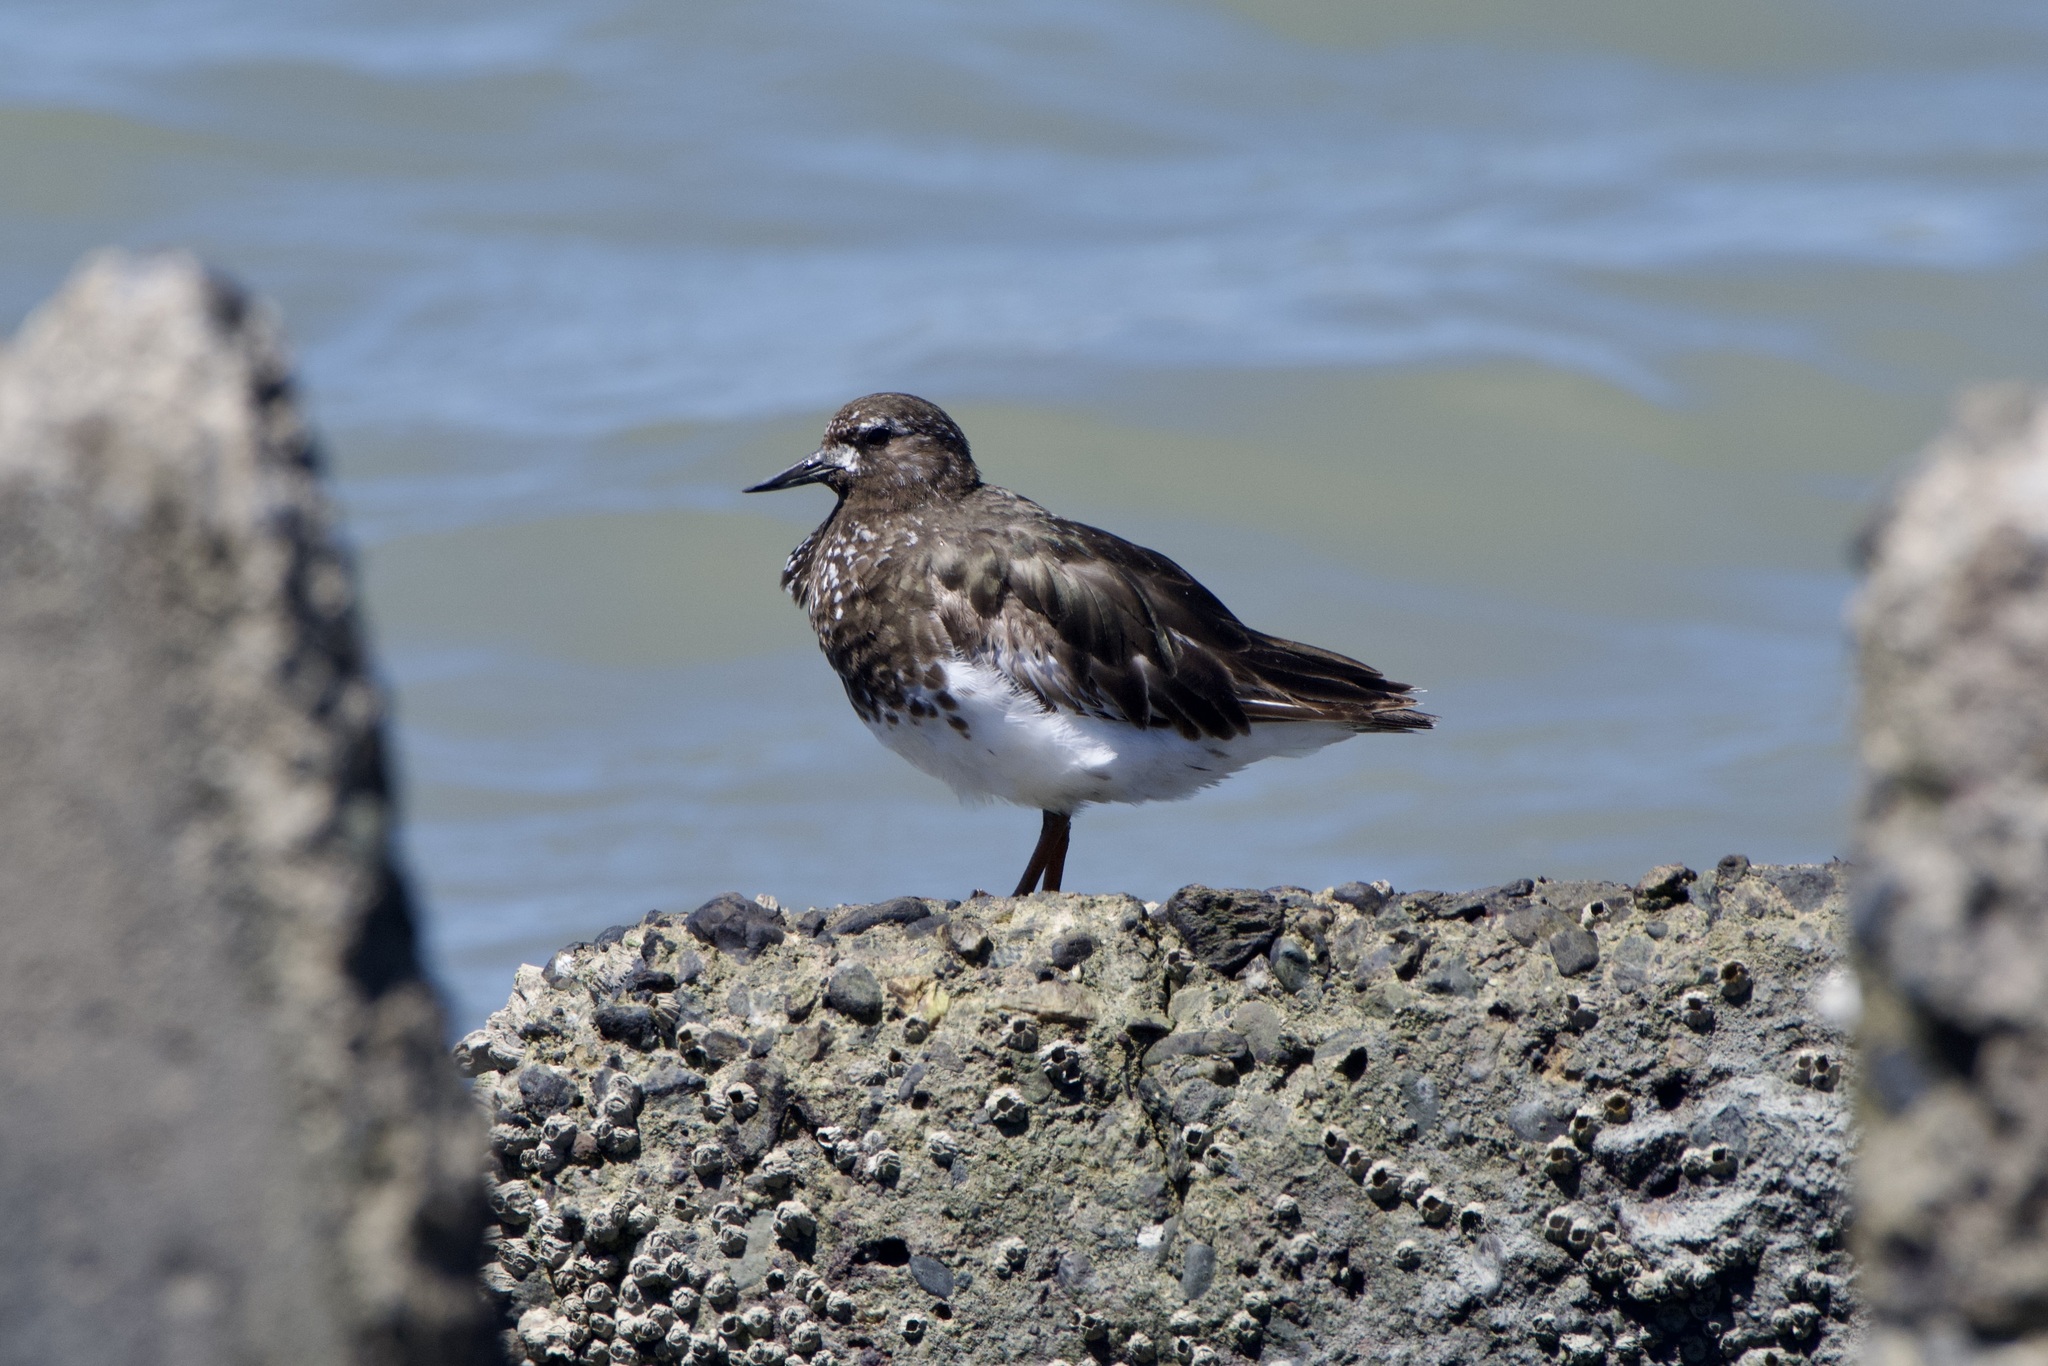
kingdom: Animalia
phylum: Chordata
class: Aves
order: Charadriiformes
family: Scolopacidae
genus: Arenaria
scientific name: Arenaria melanocephala
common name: Black turnstone
